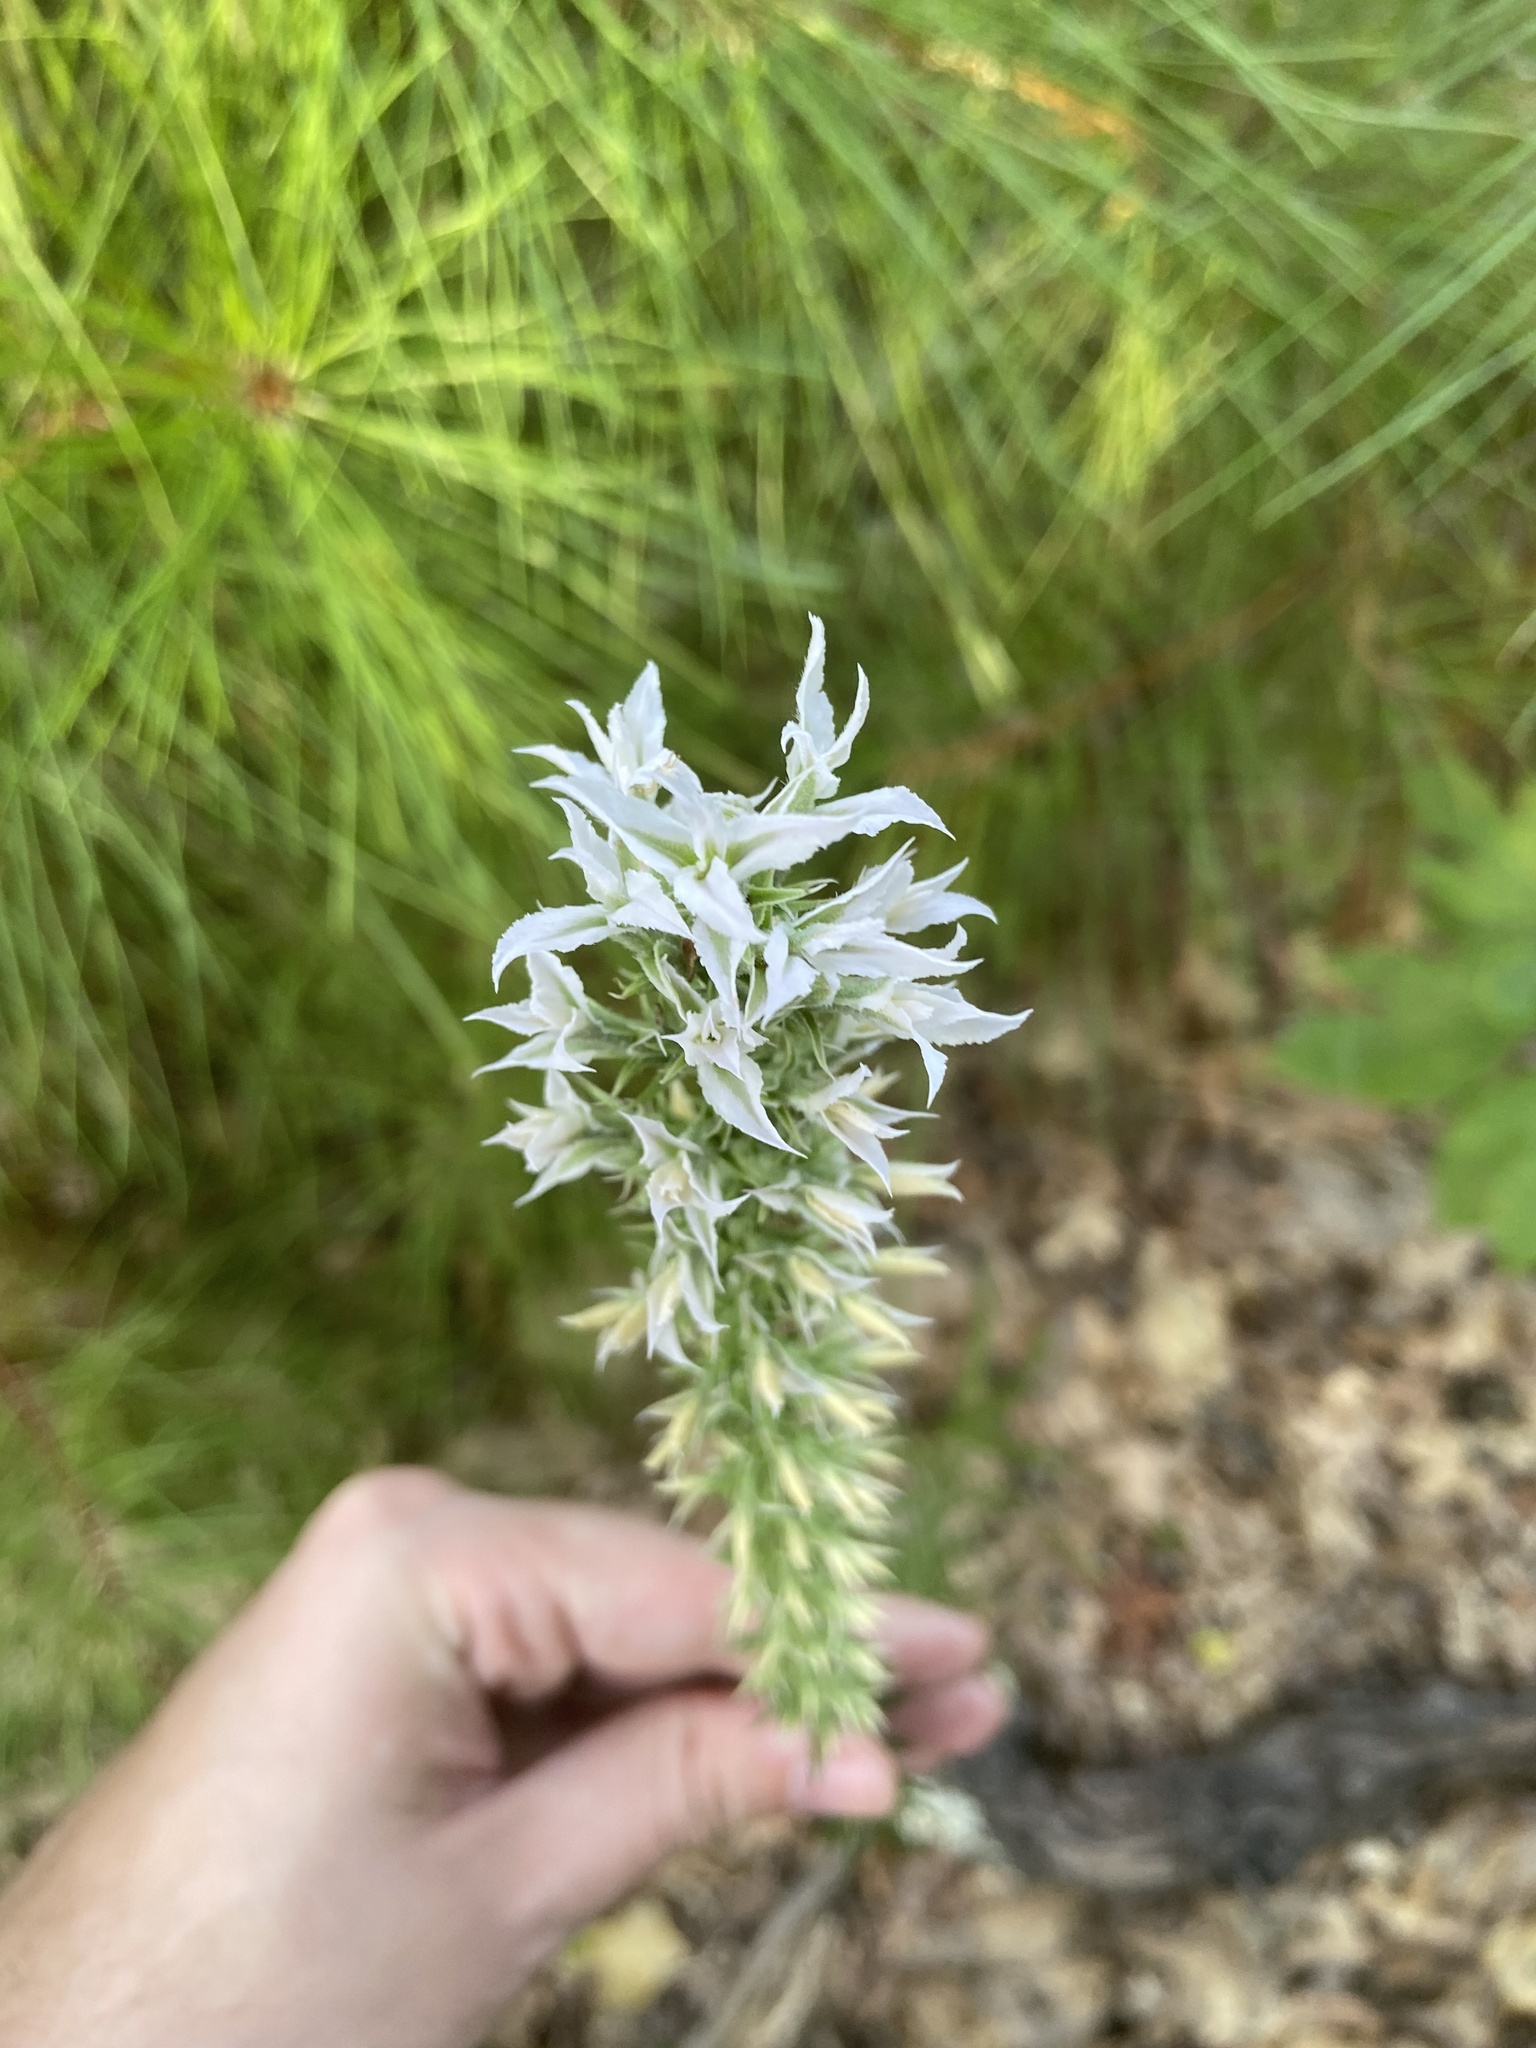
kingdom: Plantae
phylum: Tracheophyta
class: Magnoliopsida
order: Asterales
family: Asteraceae
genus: Liatris
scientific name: Liatris bridgesii
